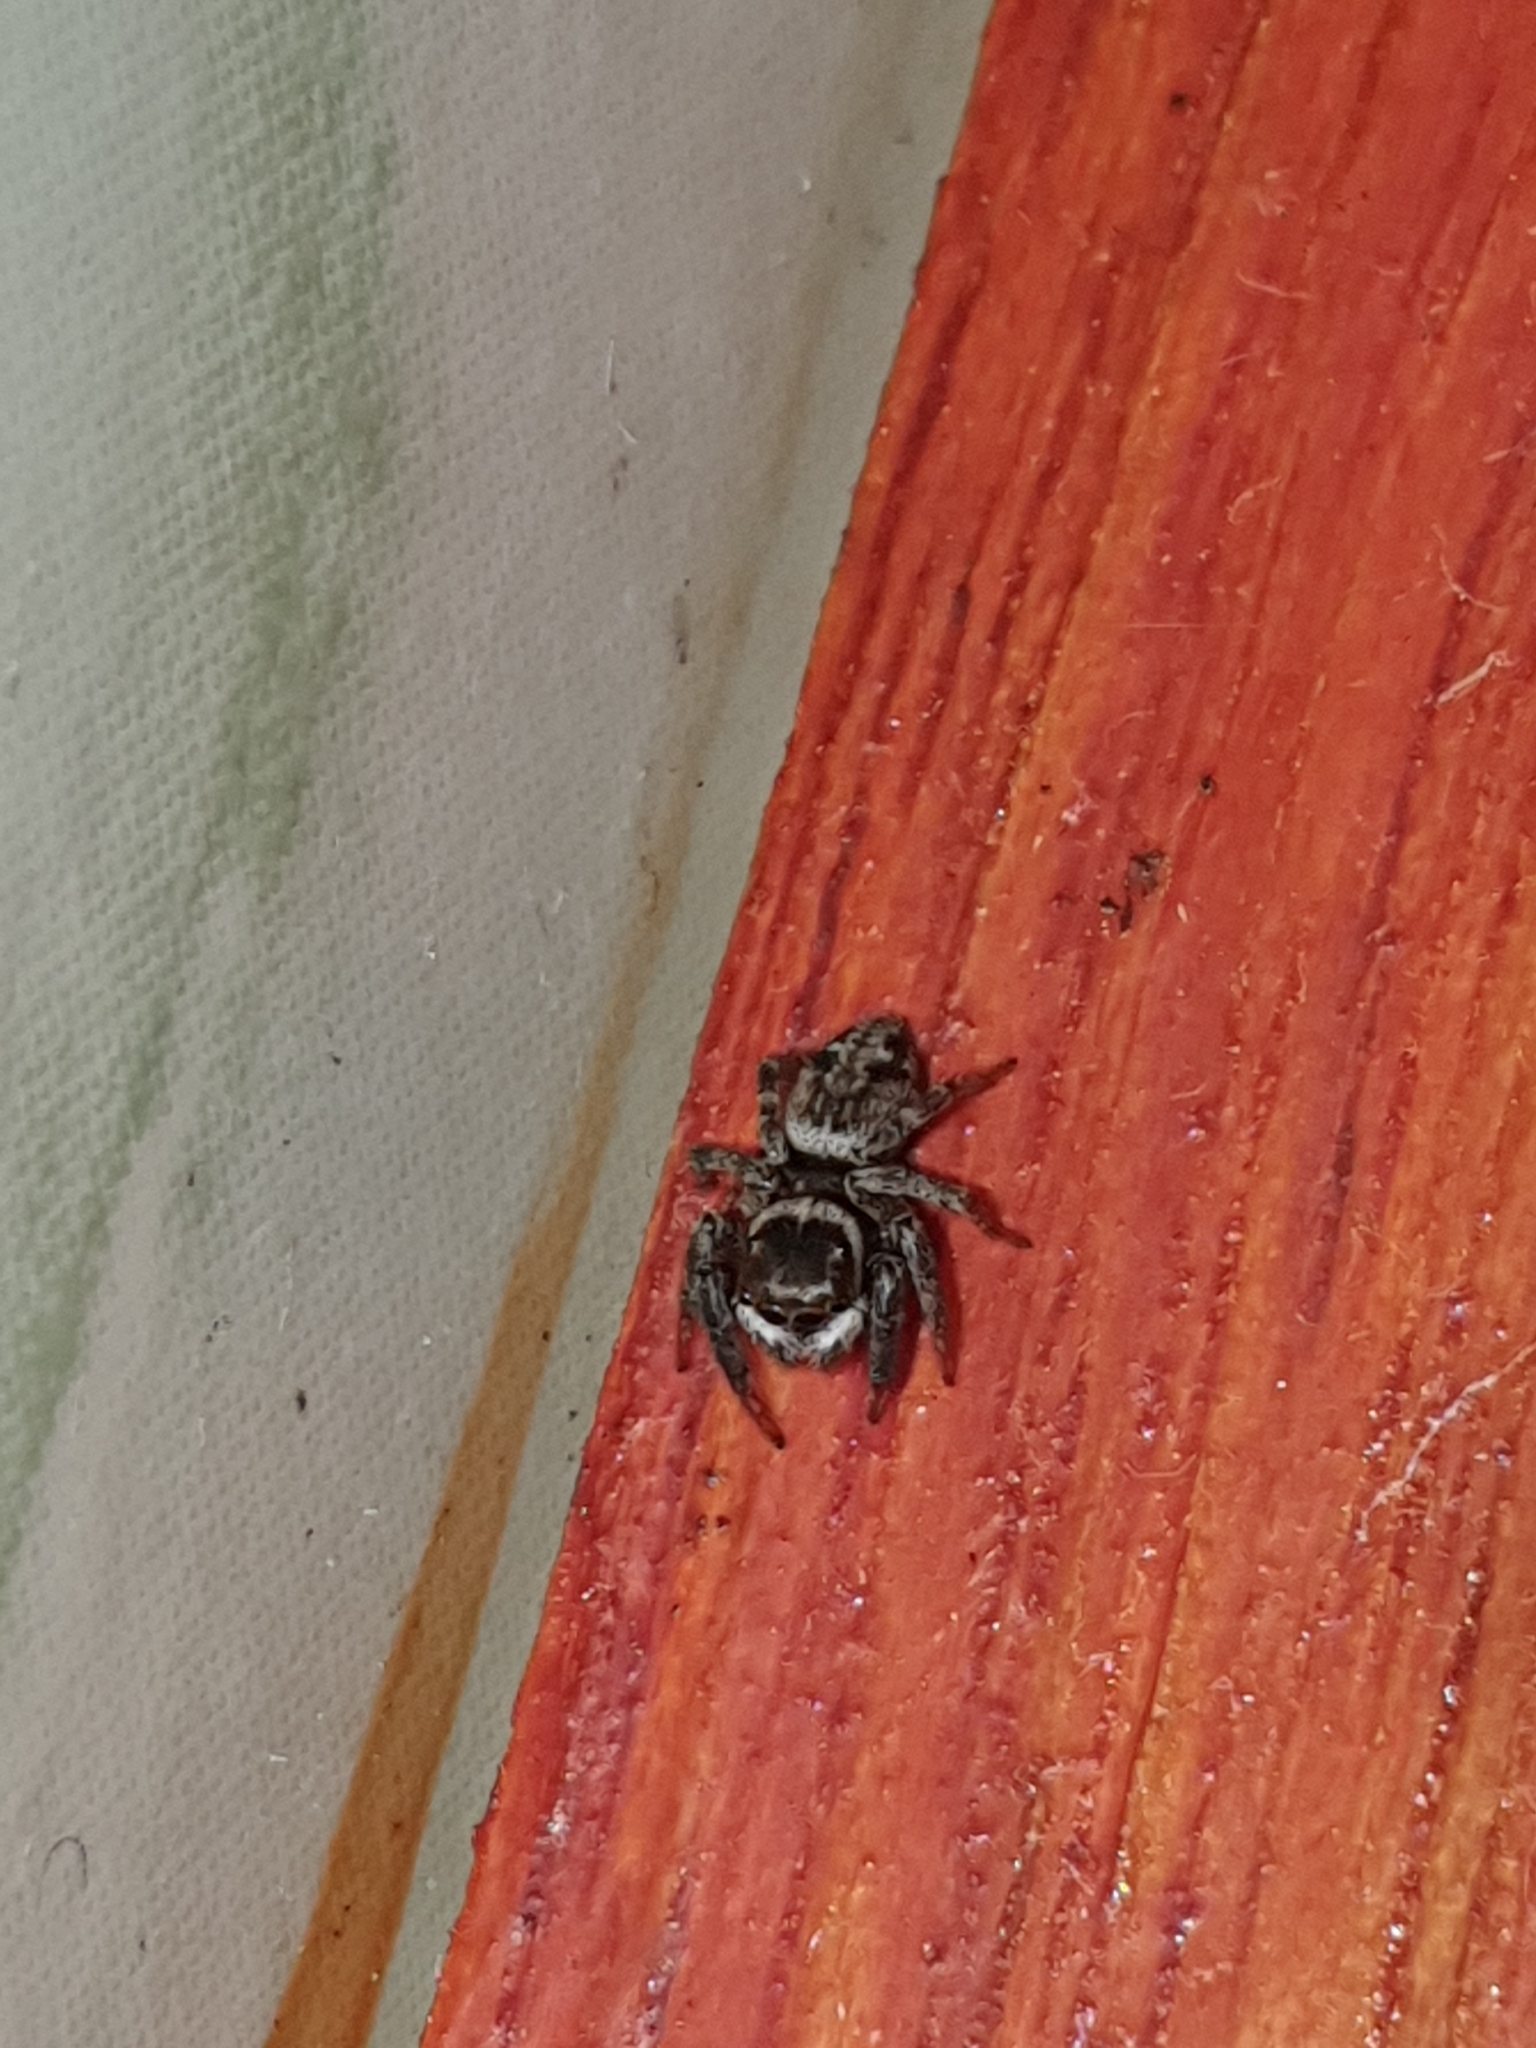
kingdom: Animalia
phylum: Arthropoda
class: Arachnida
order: Araneae
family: Salticidae
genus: Hasarius
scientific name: Hasarius adansoni
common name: Jumping spider
